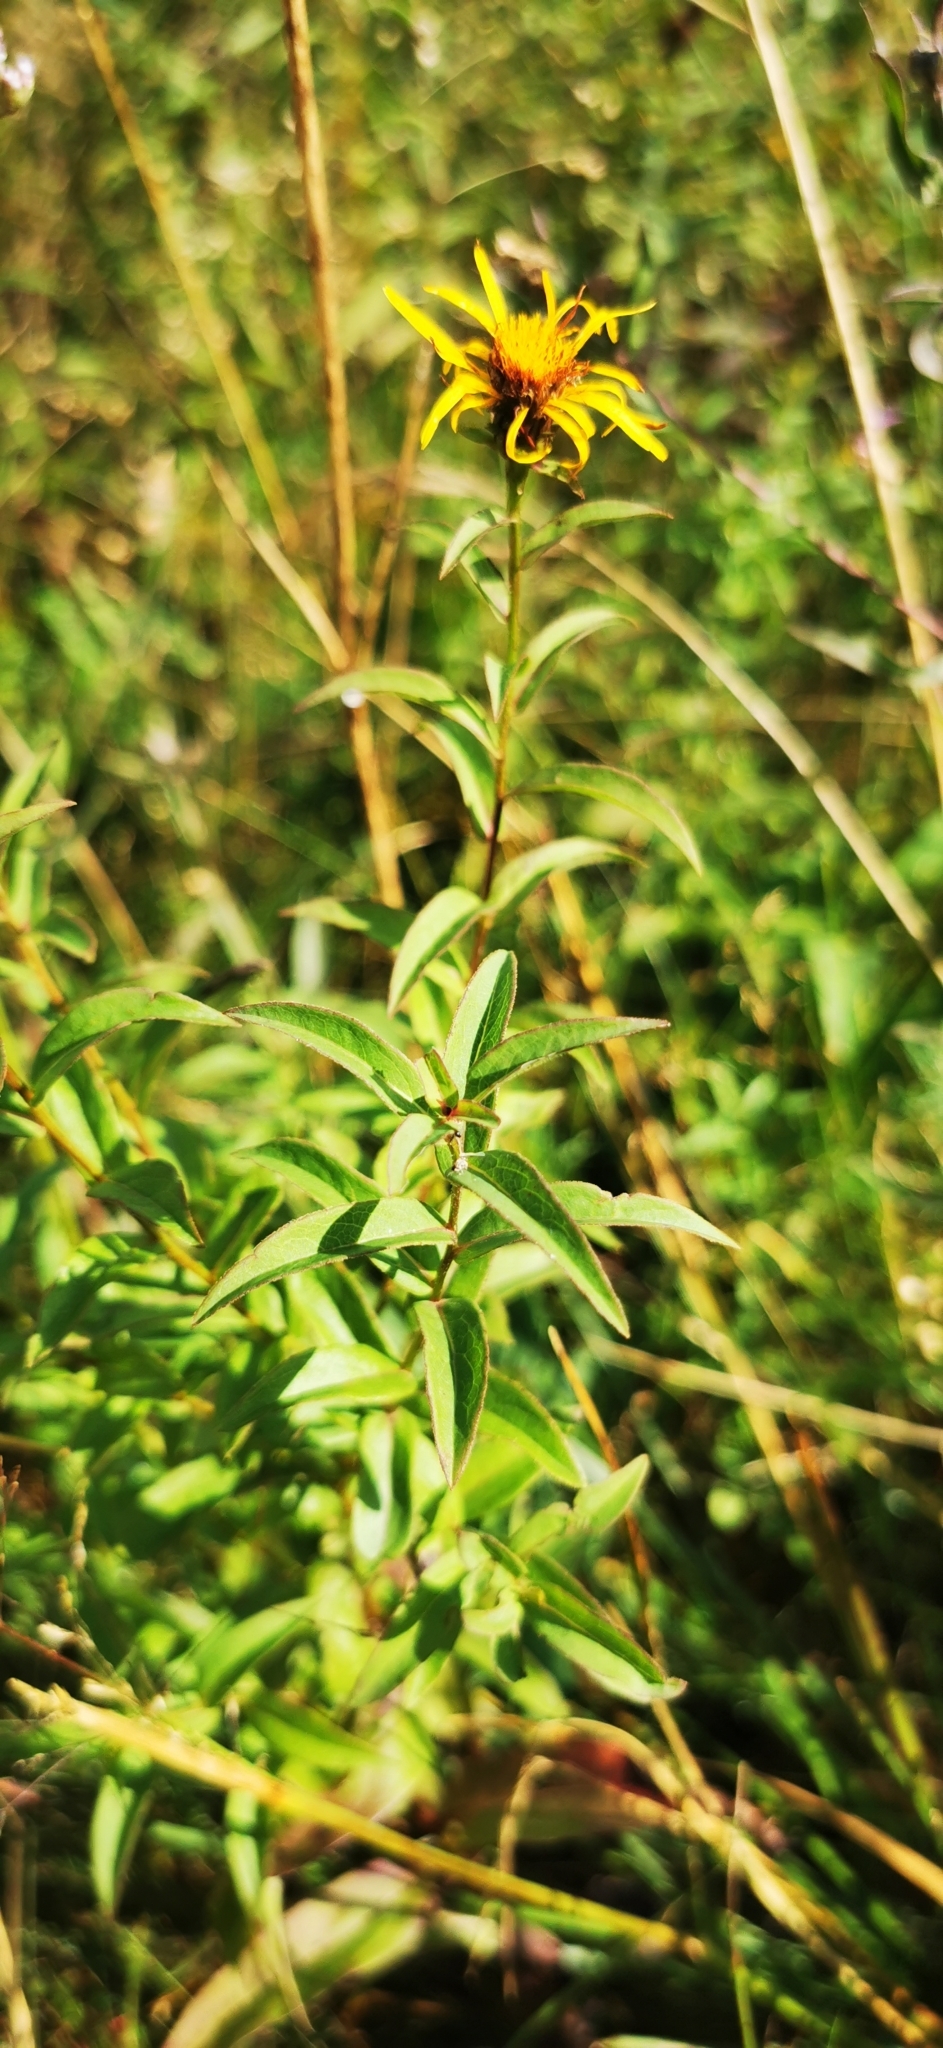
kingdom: Plantae
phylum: Tracheophyta
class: Magnoliopsida
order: Asterales
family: Asteraceae
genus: Pentanema
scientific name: Pentanema salicinum
